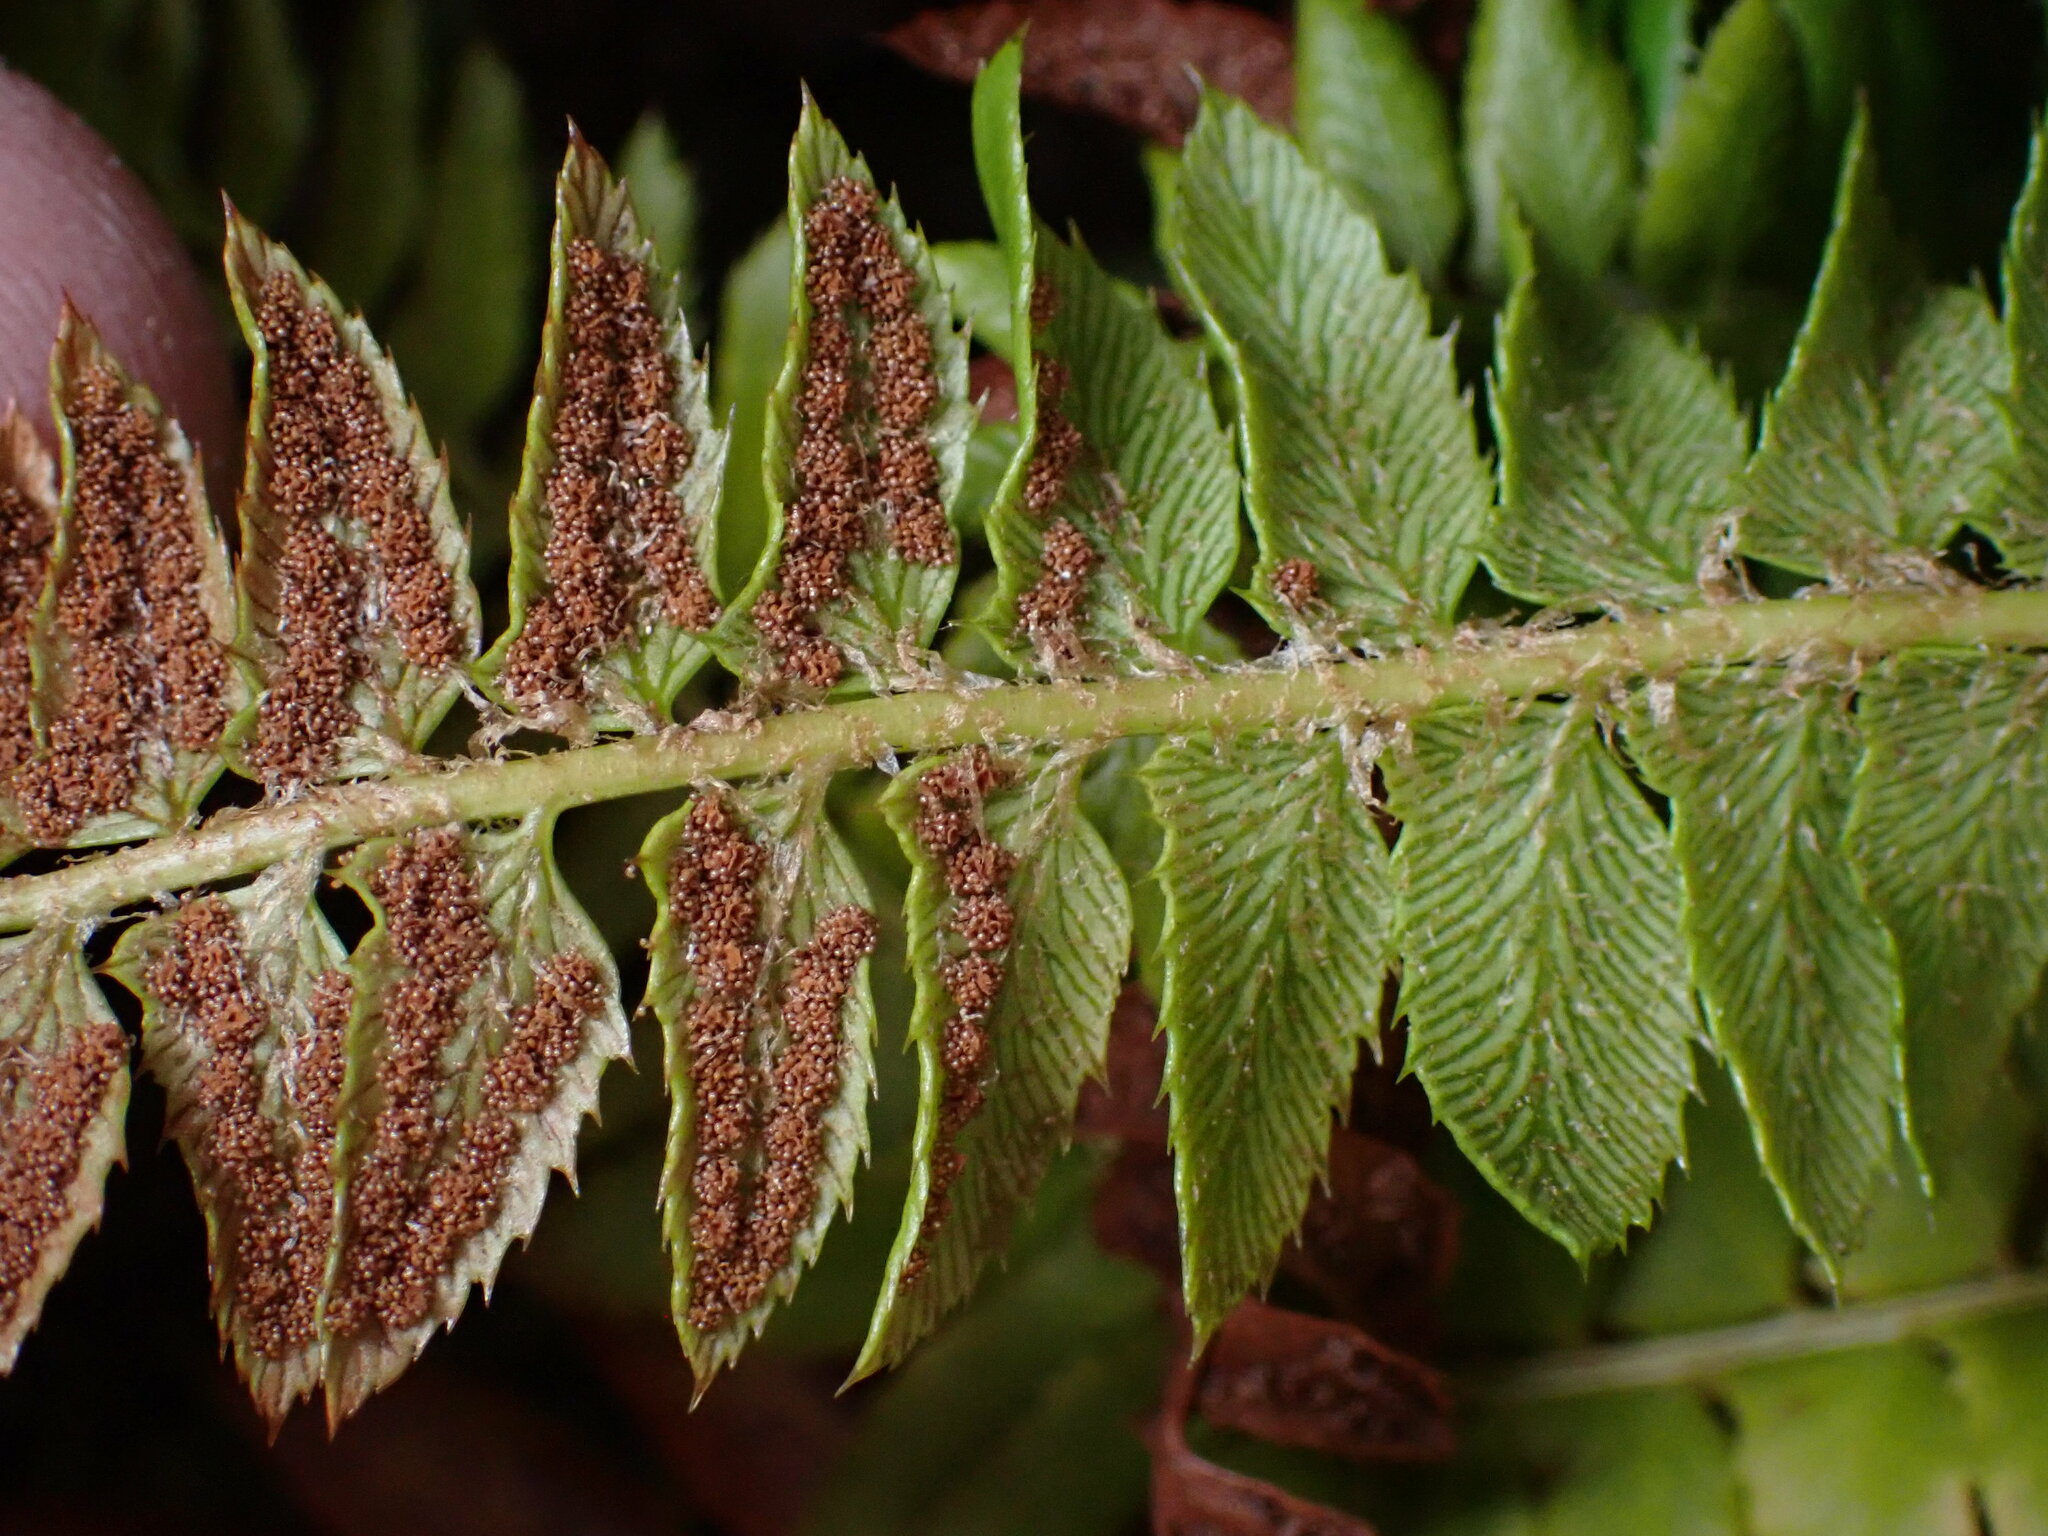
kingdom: Plantae
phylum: Tracheophyta
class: Polypodiopsida
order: Polypodiales
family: Dryopteridaceae
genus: Polystichum
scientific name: Polystichum lonchitis
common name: Holly fern
